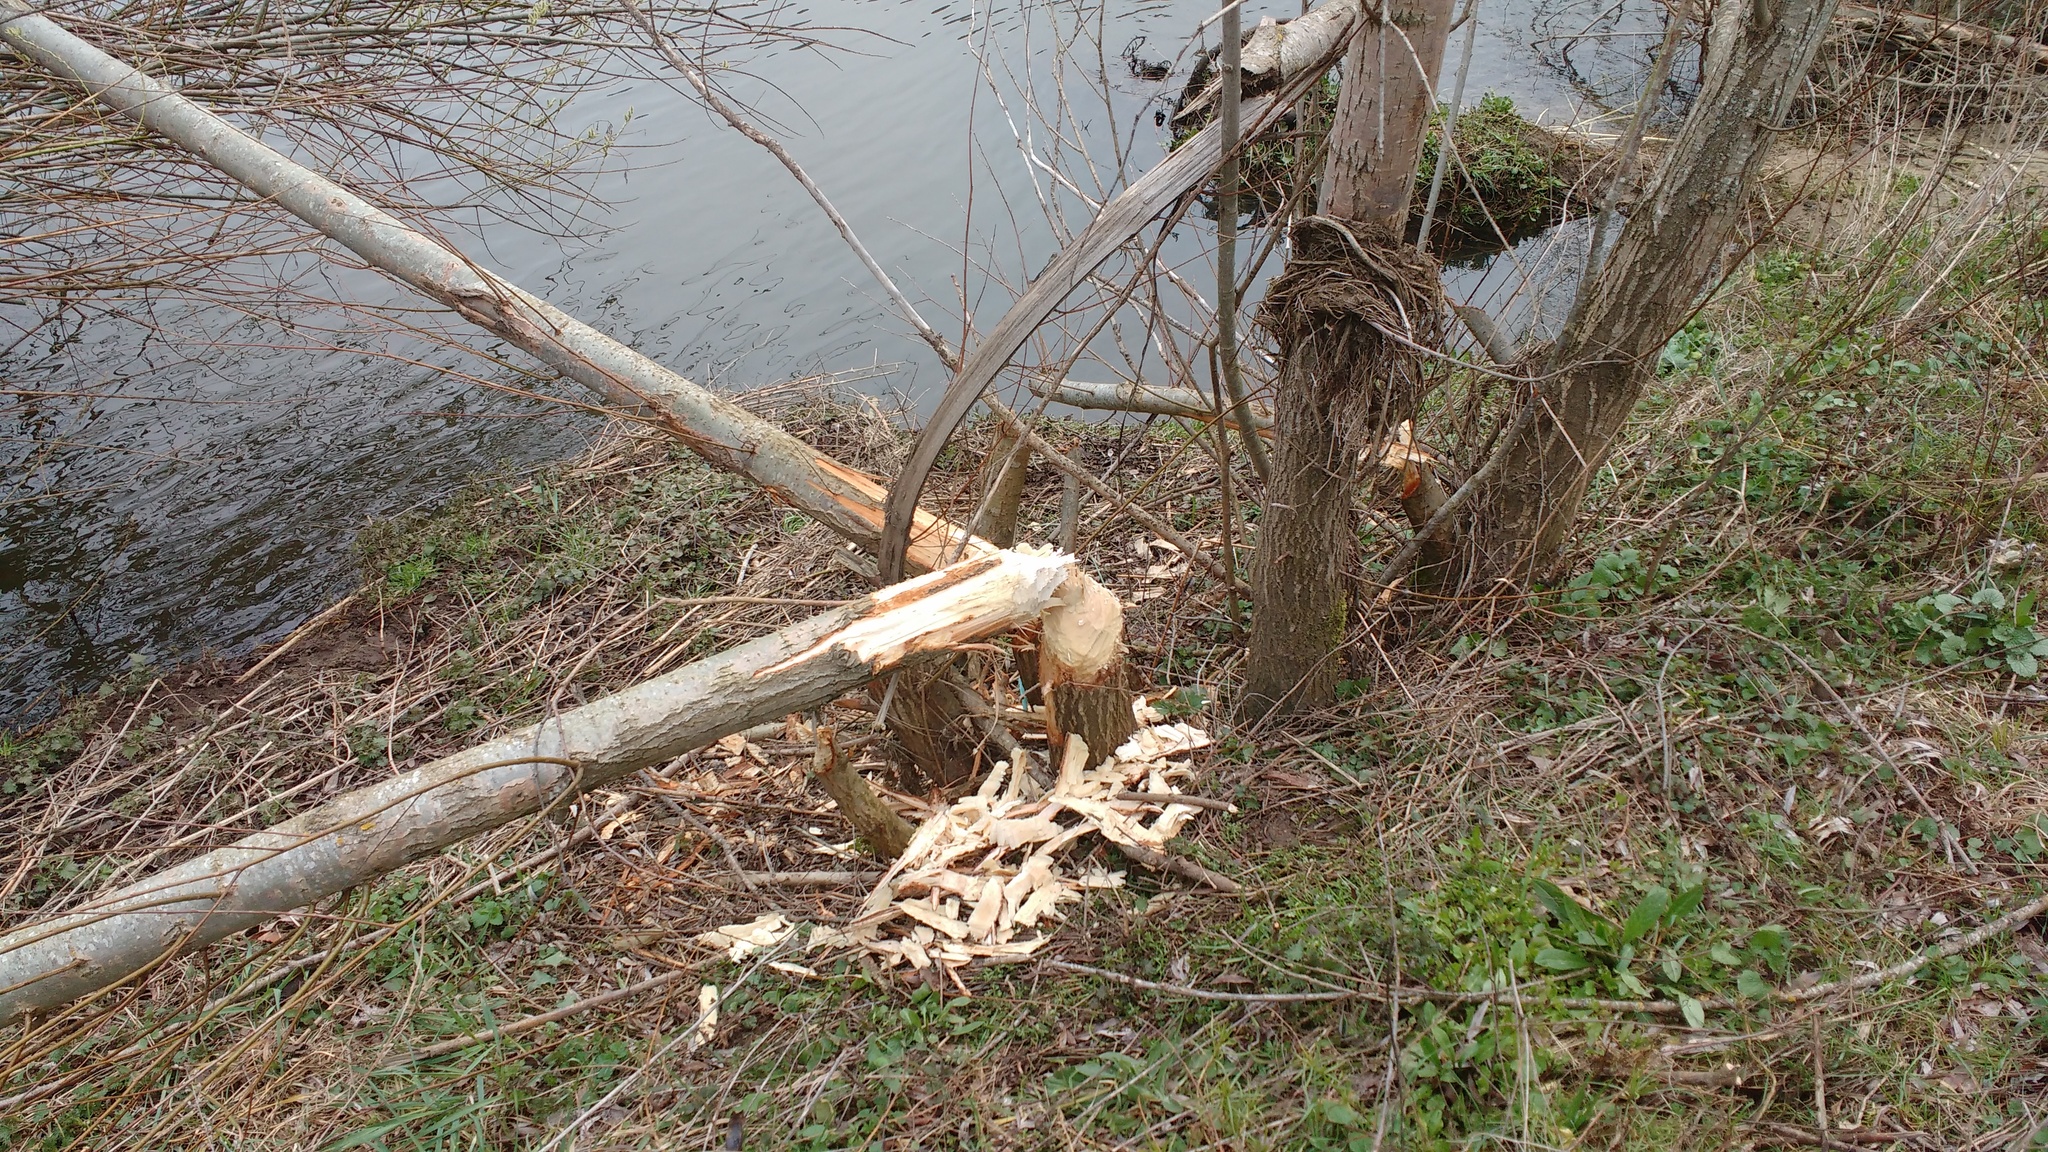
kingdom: Animalia
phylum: Chordata
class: Mammalia
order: Rodentia
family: Castoridae
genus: Castor
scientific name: Castor fiber
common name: Eurasian beaver
